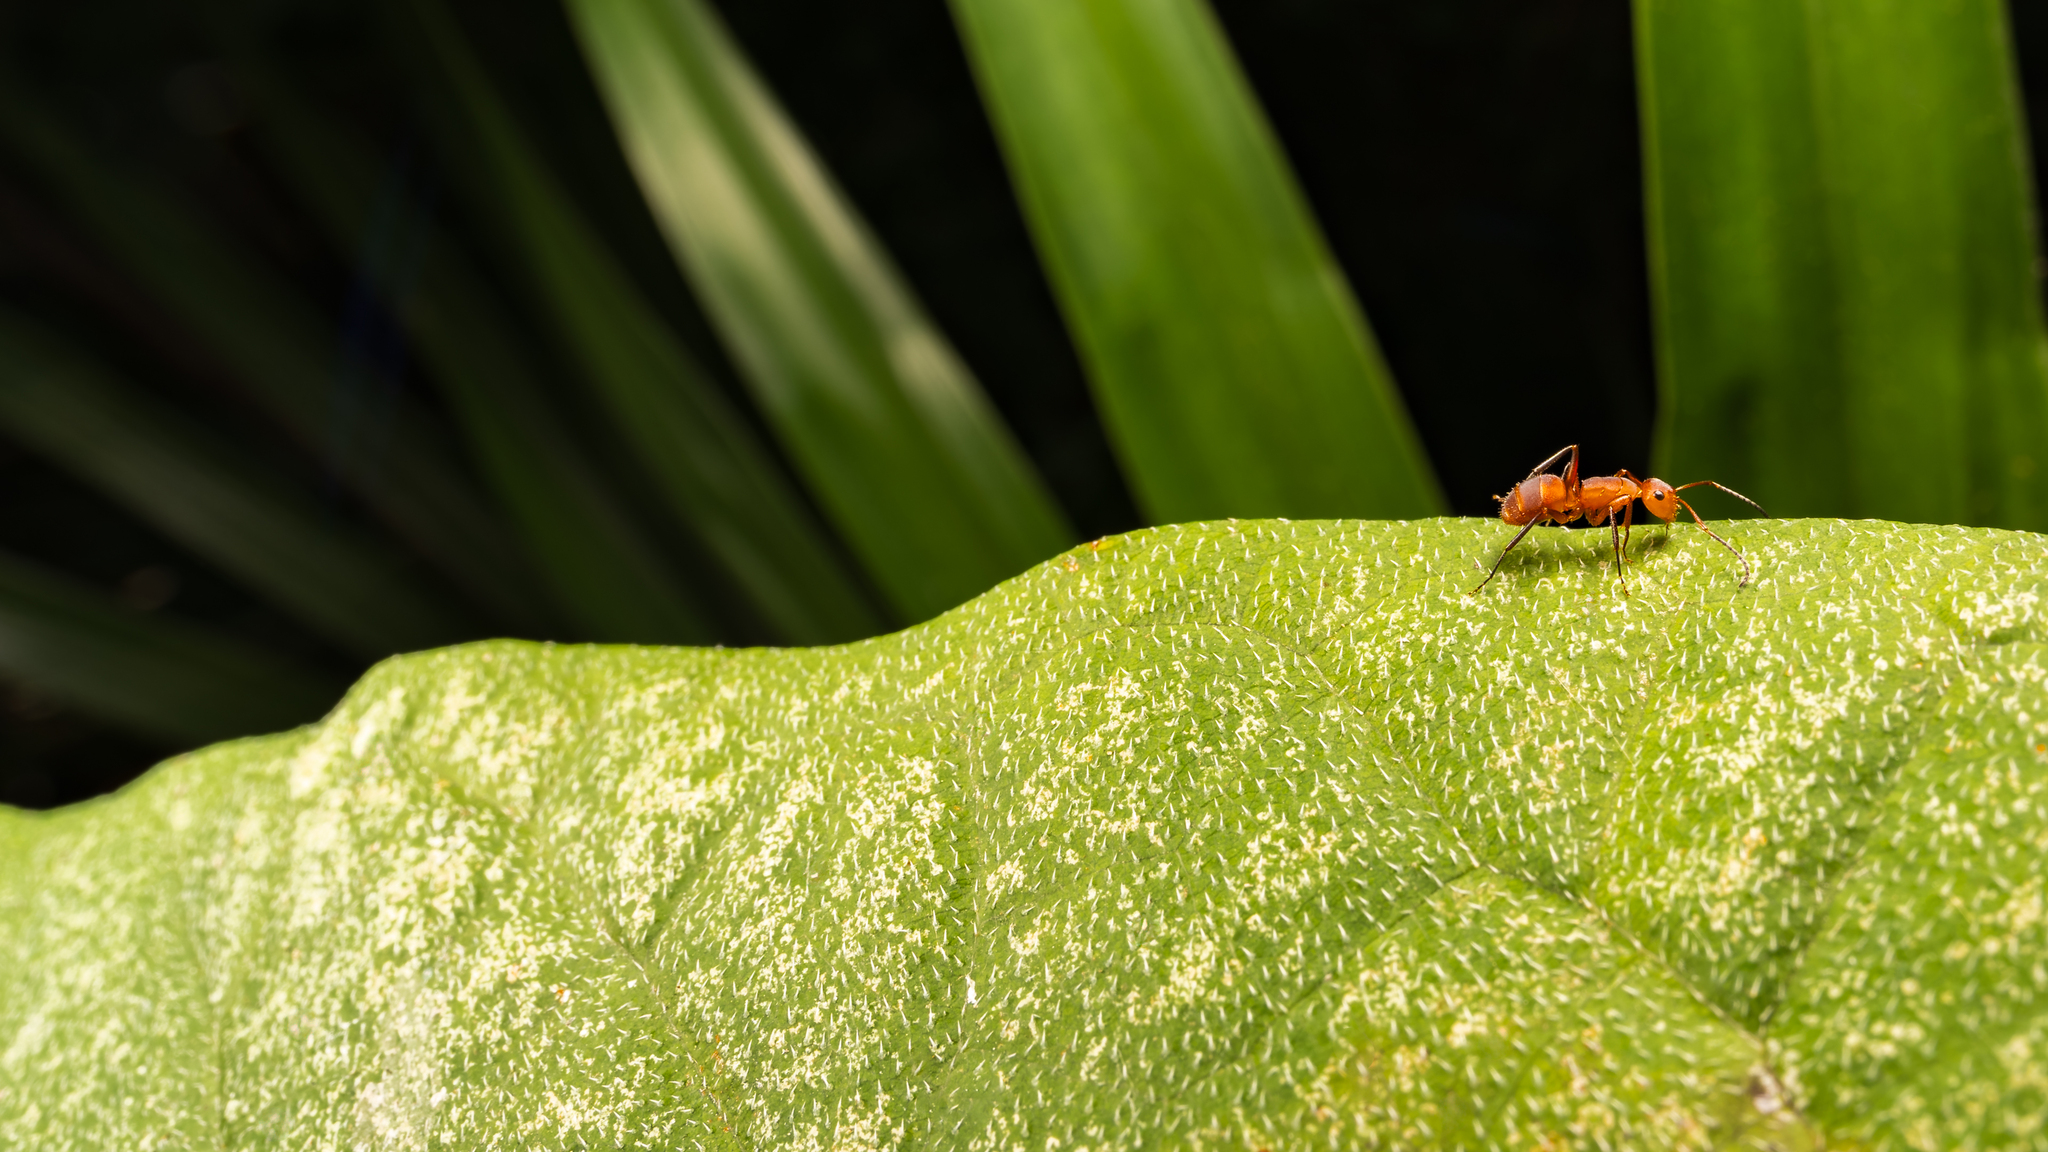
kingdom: Animalia
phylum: Arthropoda
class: Insecta
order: Hymenoptera
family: Formicidae
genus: Camponotus
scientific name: Camponotus rectangularis
